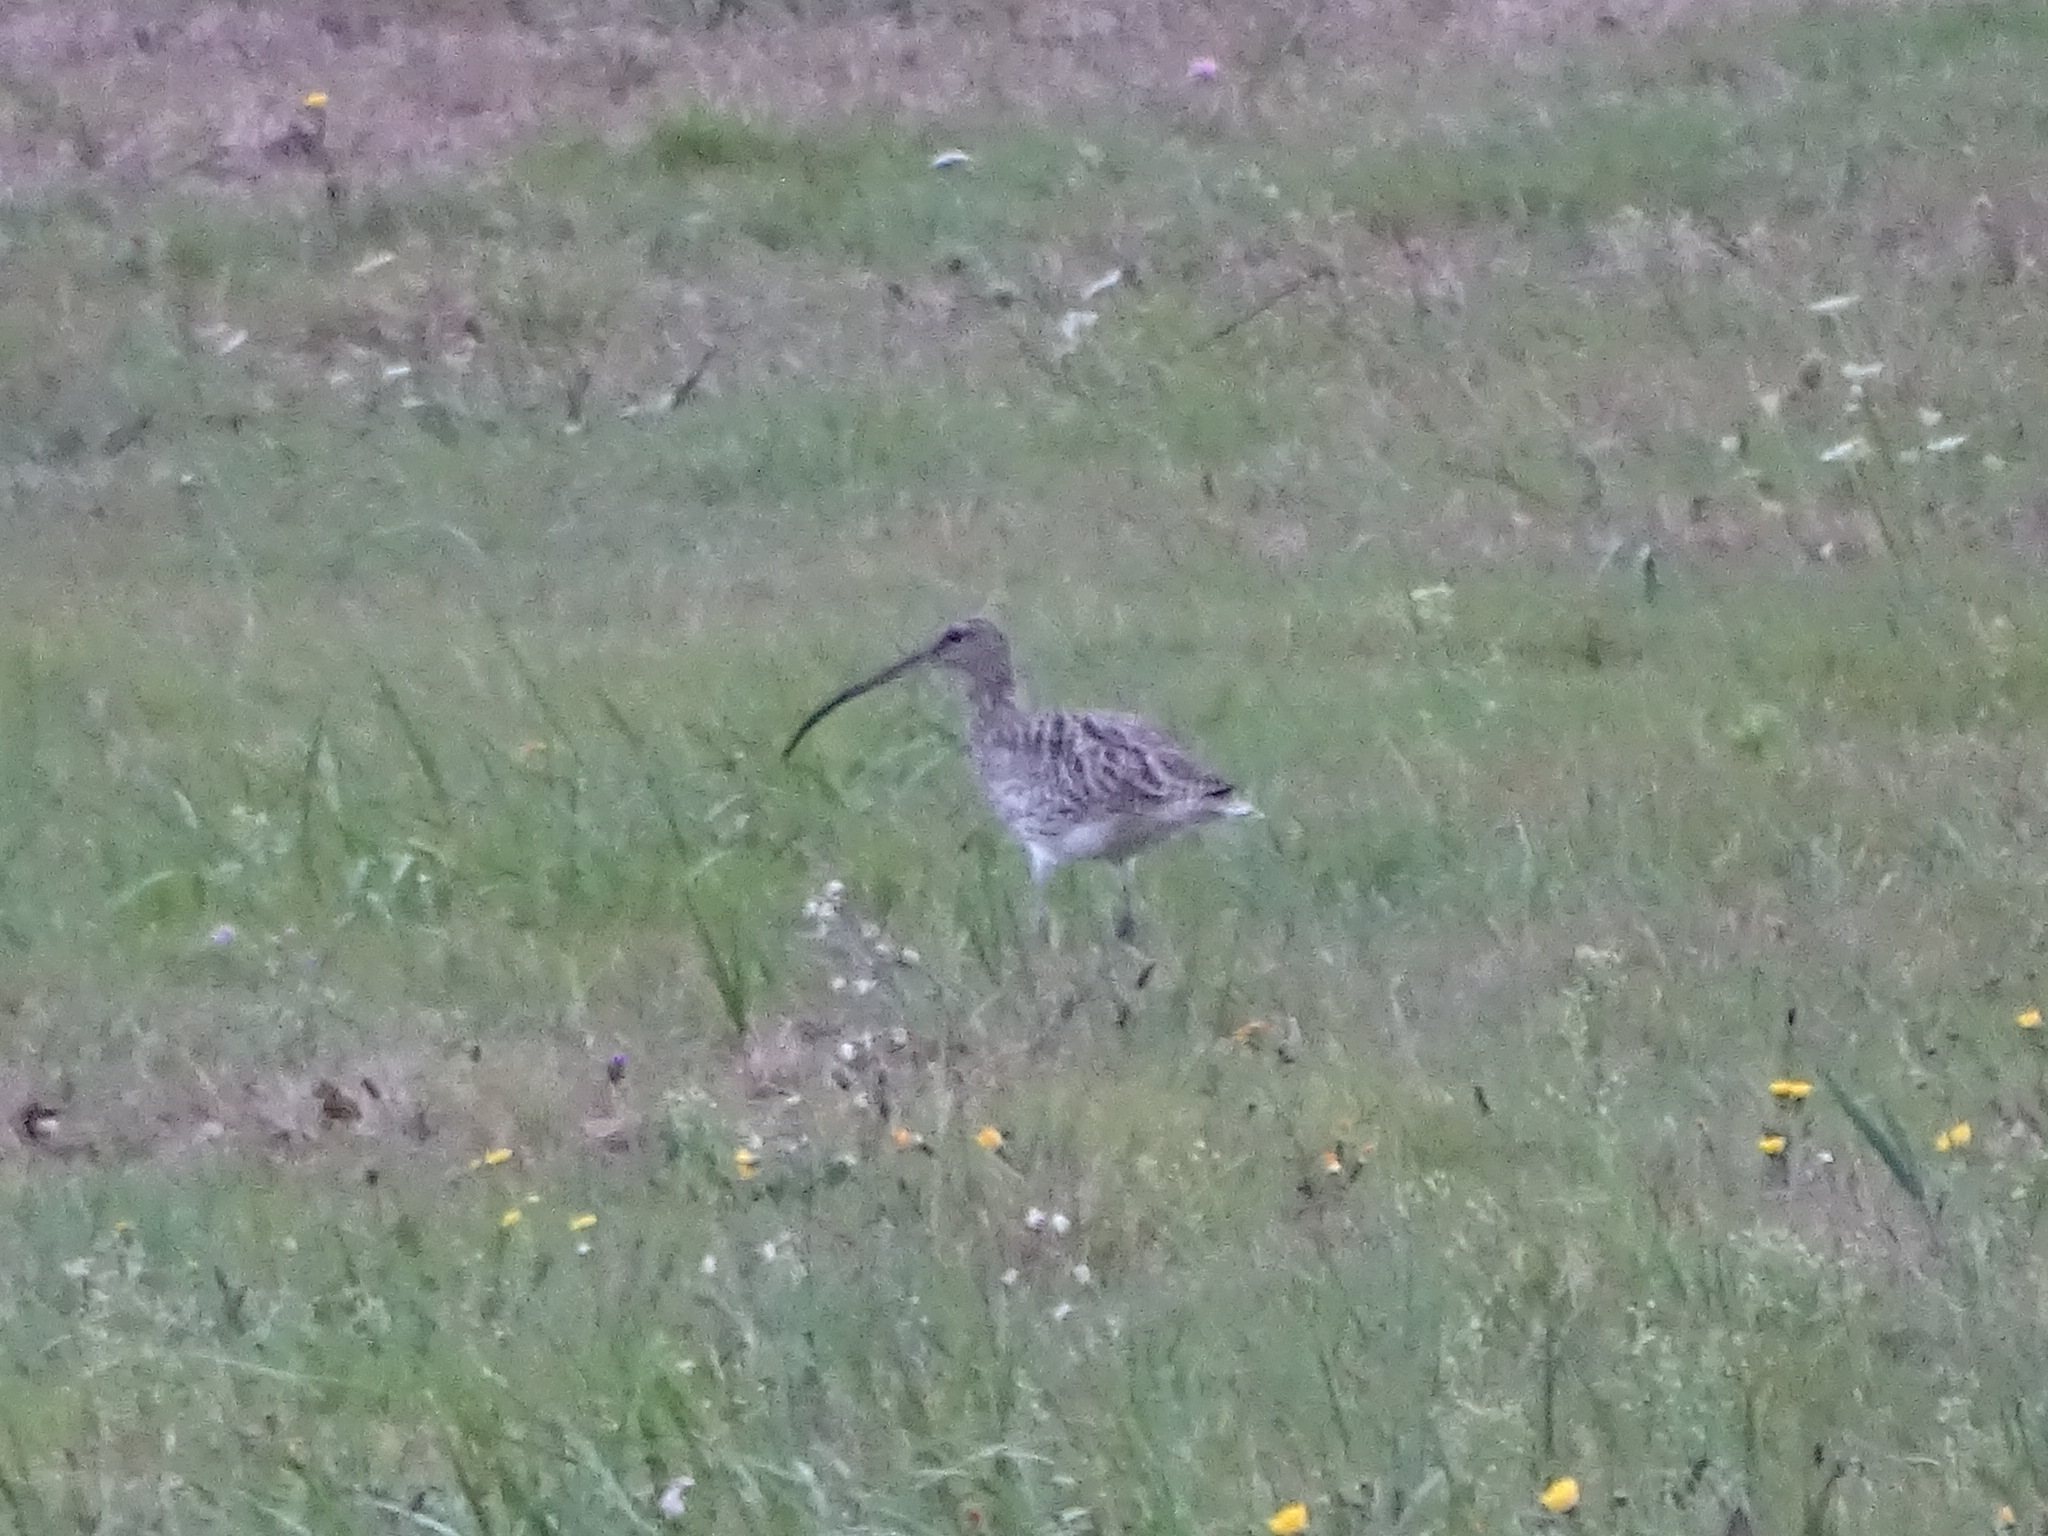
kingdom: Animalia
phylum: Chordata
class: Aves
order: Charadriiformes
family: Scolopacidae
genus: Numenius
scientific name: Numenius arquata
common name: Eurasian curlew
